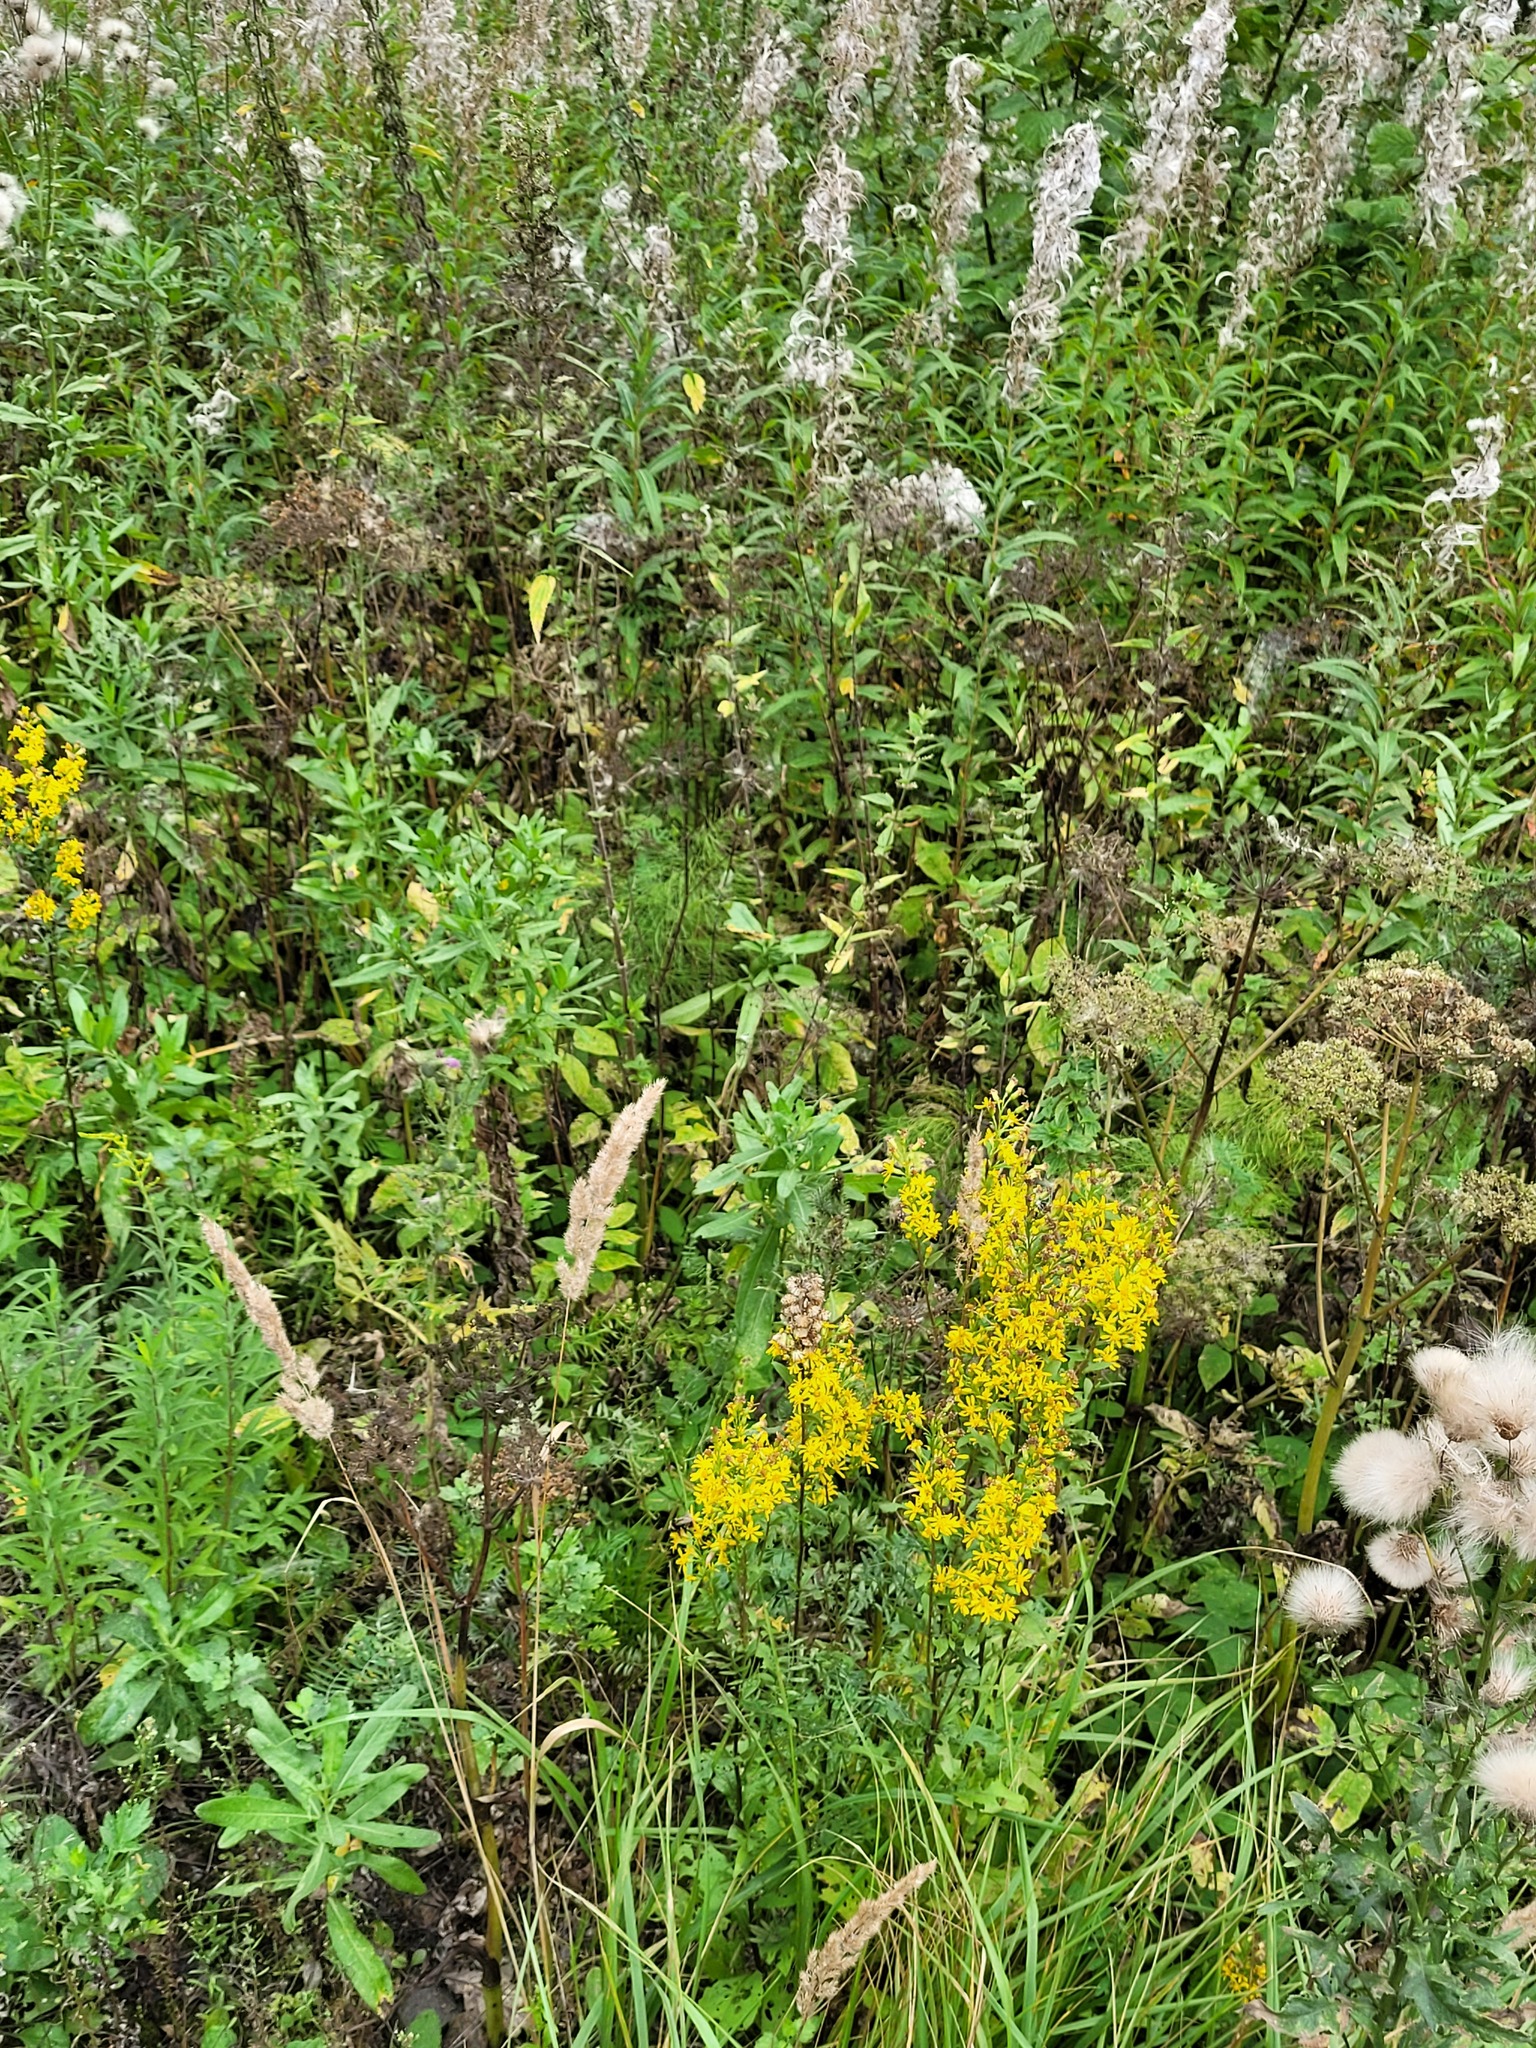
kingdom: Plantae
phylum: Tracheophyta
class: Magnoliopsida
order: Myrtales
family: Onagraceae
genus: Chamaenerion
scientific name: Chamaenerion angustifolium
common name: Fireweed
